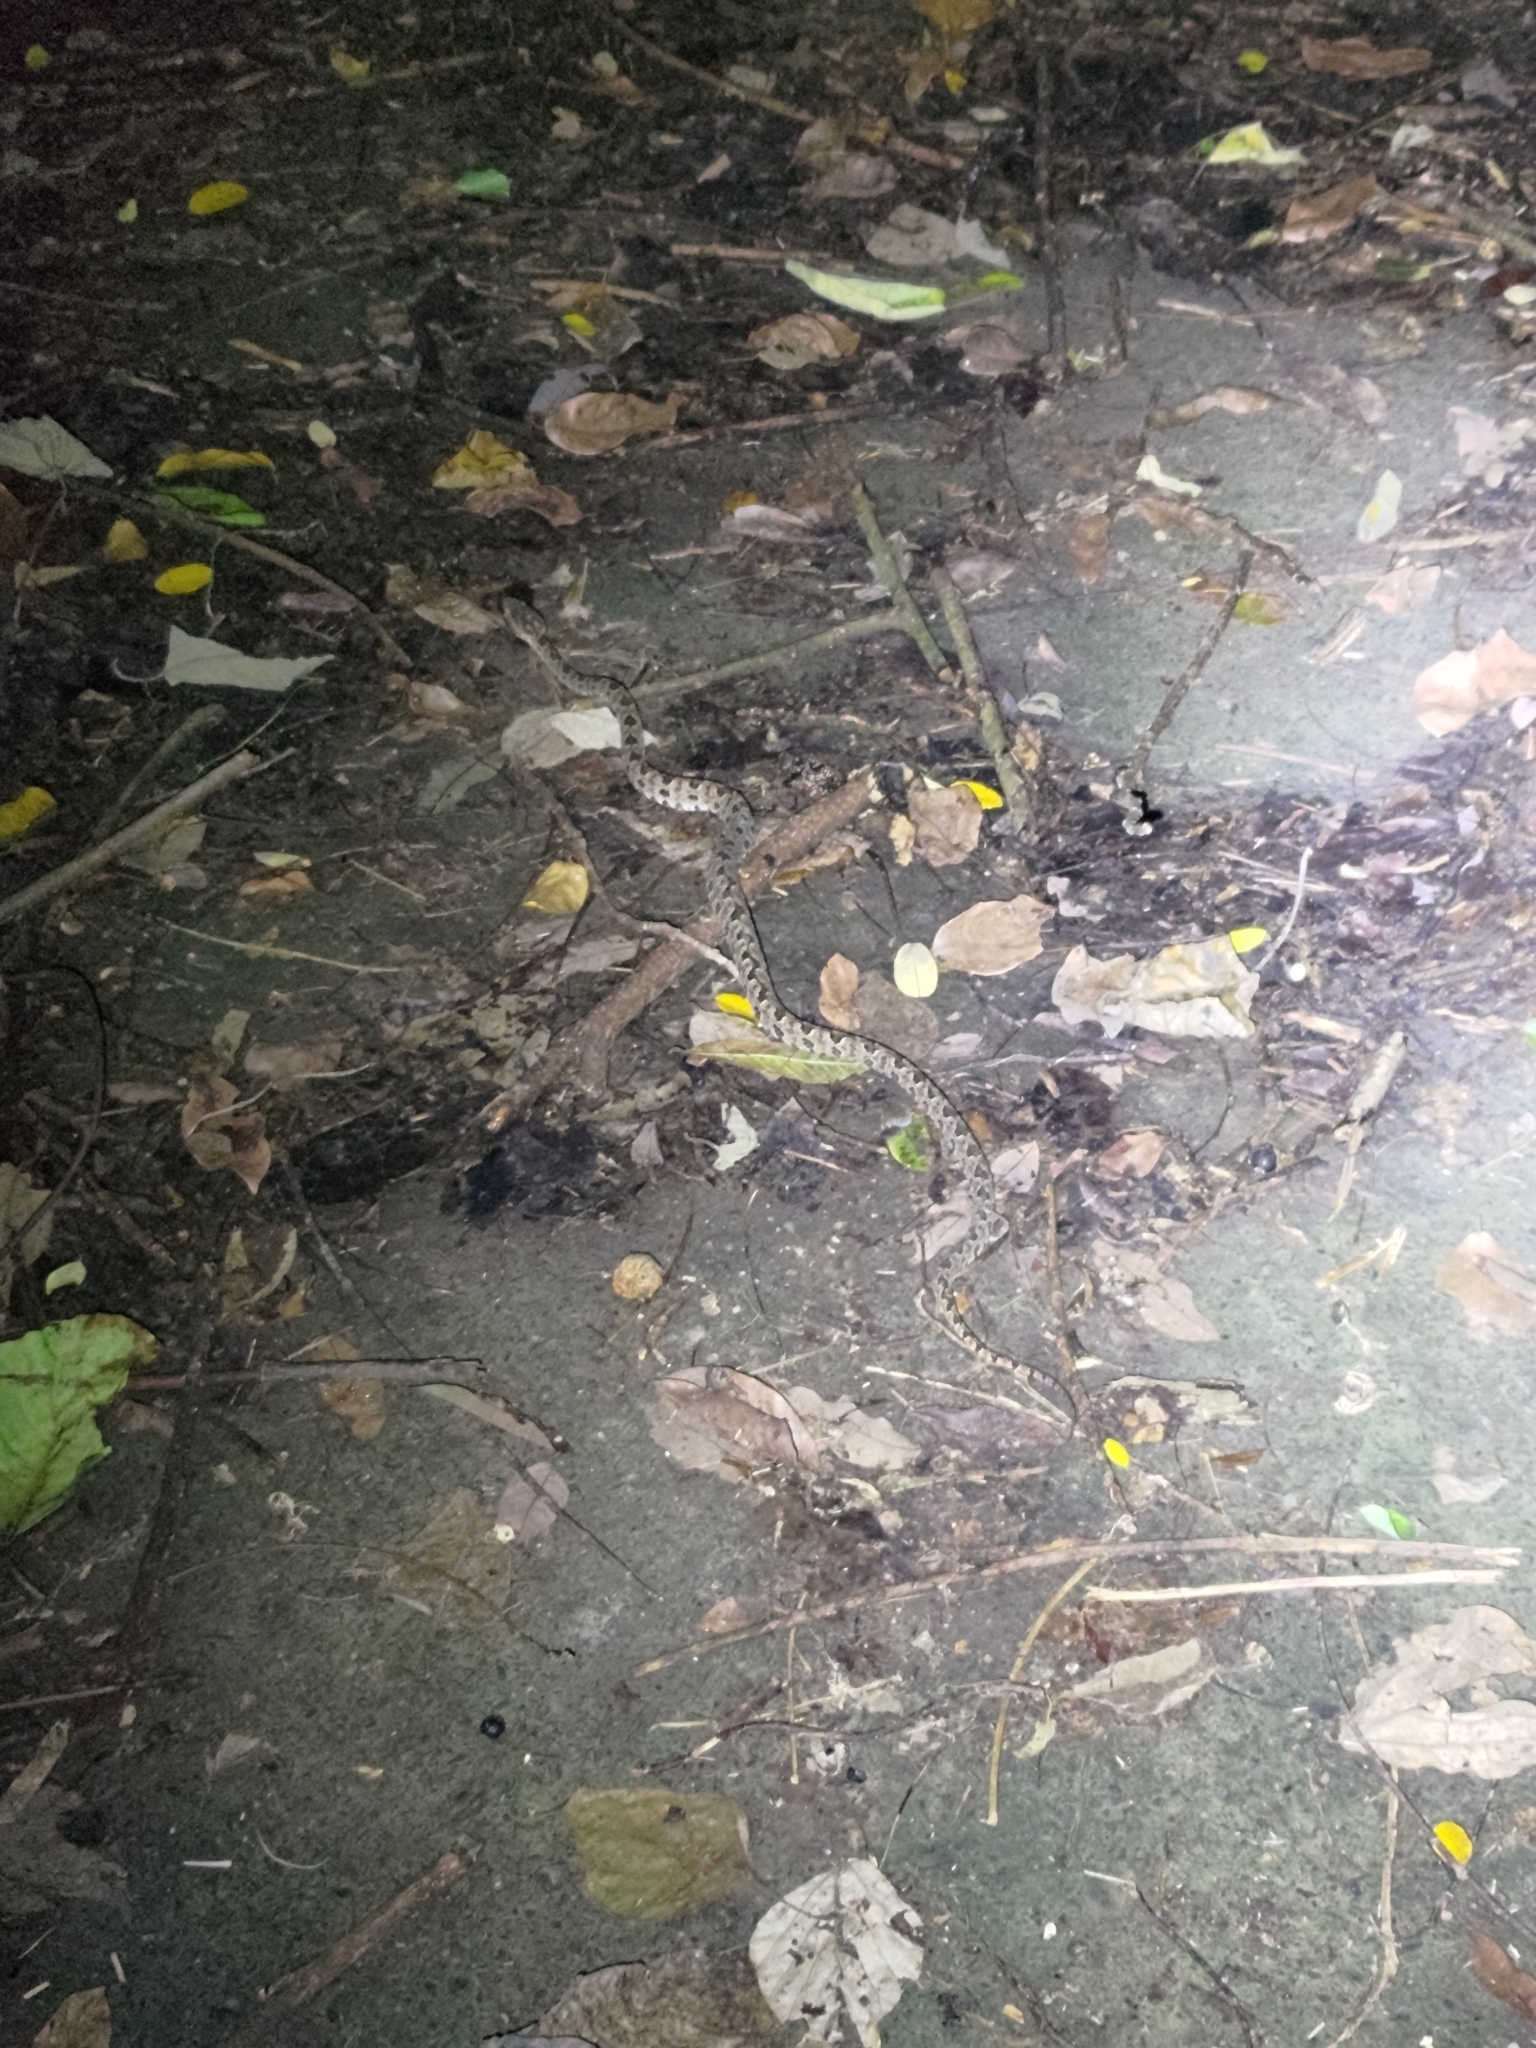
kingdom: Animalia
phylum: Chordata
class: Squamata
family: Viperidae
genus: Protobothrops
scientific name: Protobothrops mucrosquamatus
